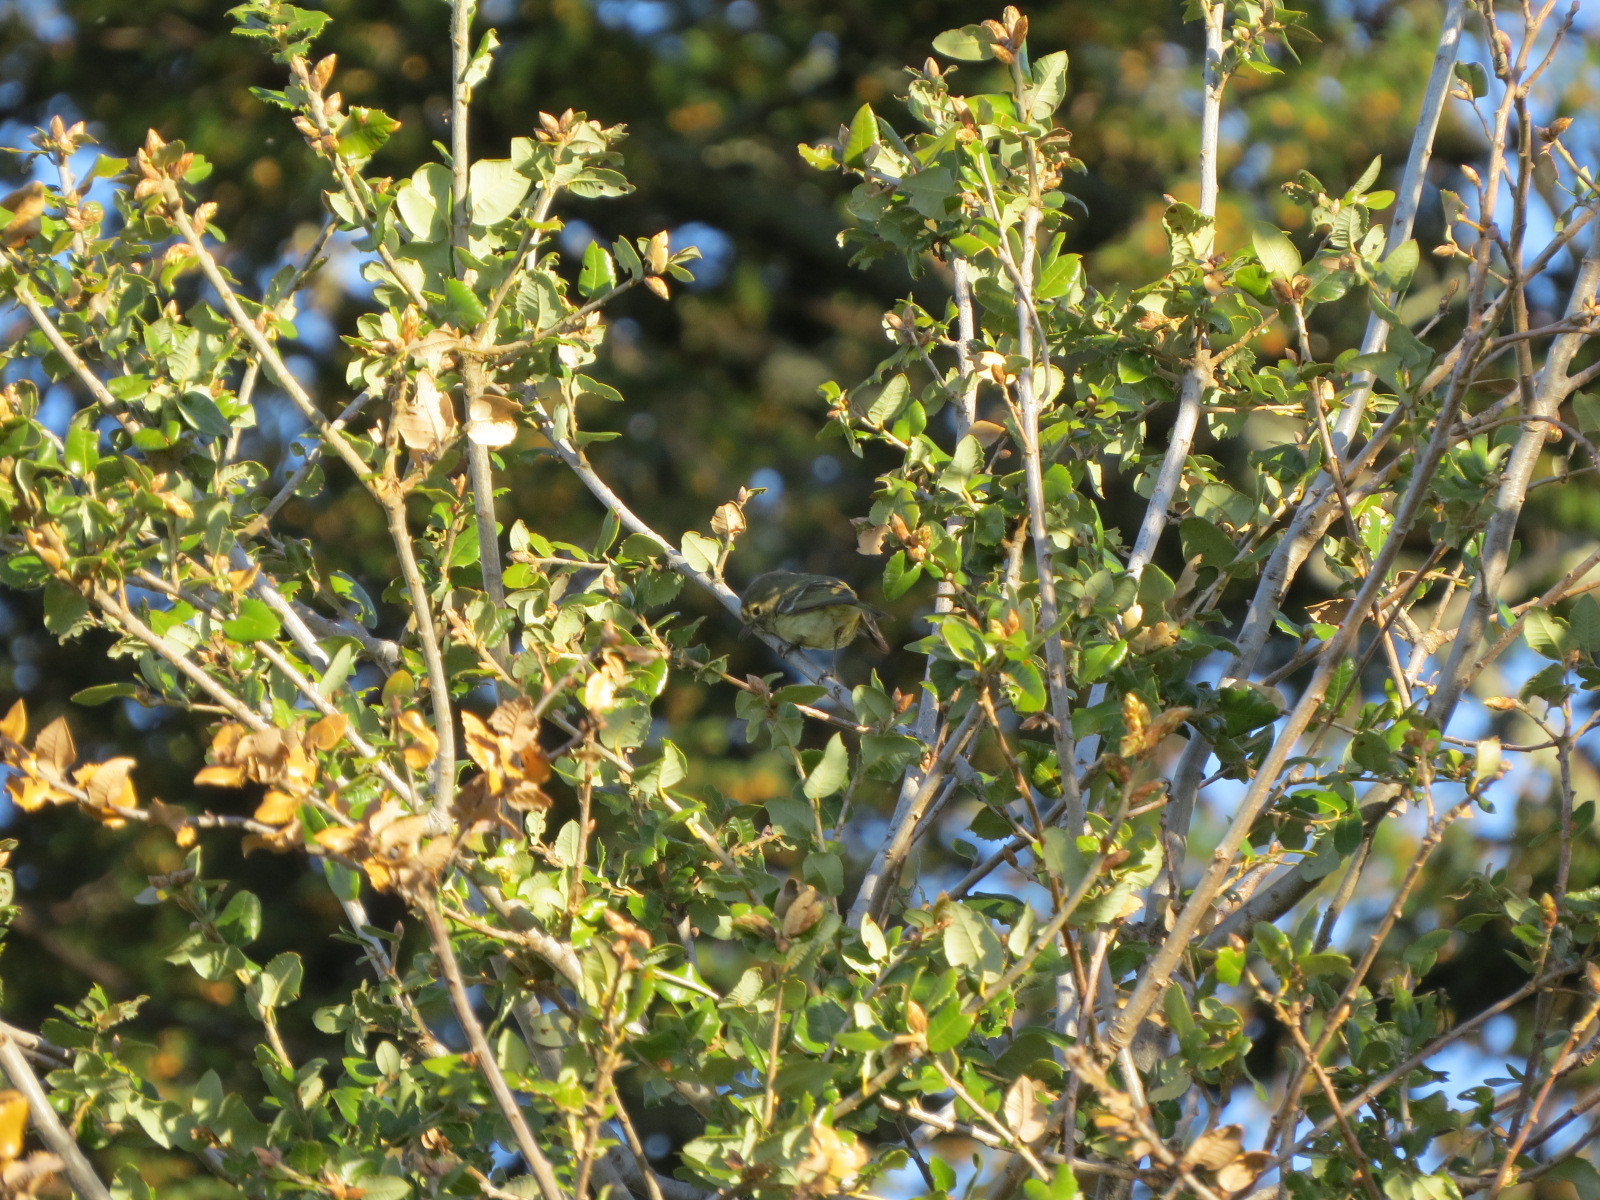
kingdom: Animalia
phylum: Chordata
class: Aves
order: Passeriformes
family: Vireonidae
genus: Vireo
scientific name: Vireo huttoni
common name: Hutton's vireo
